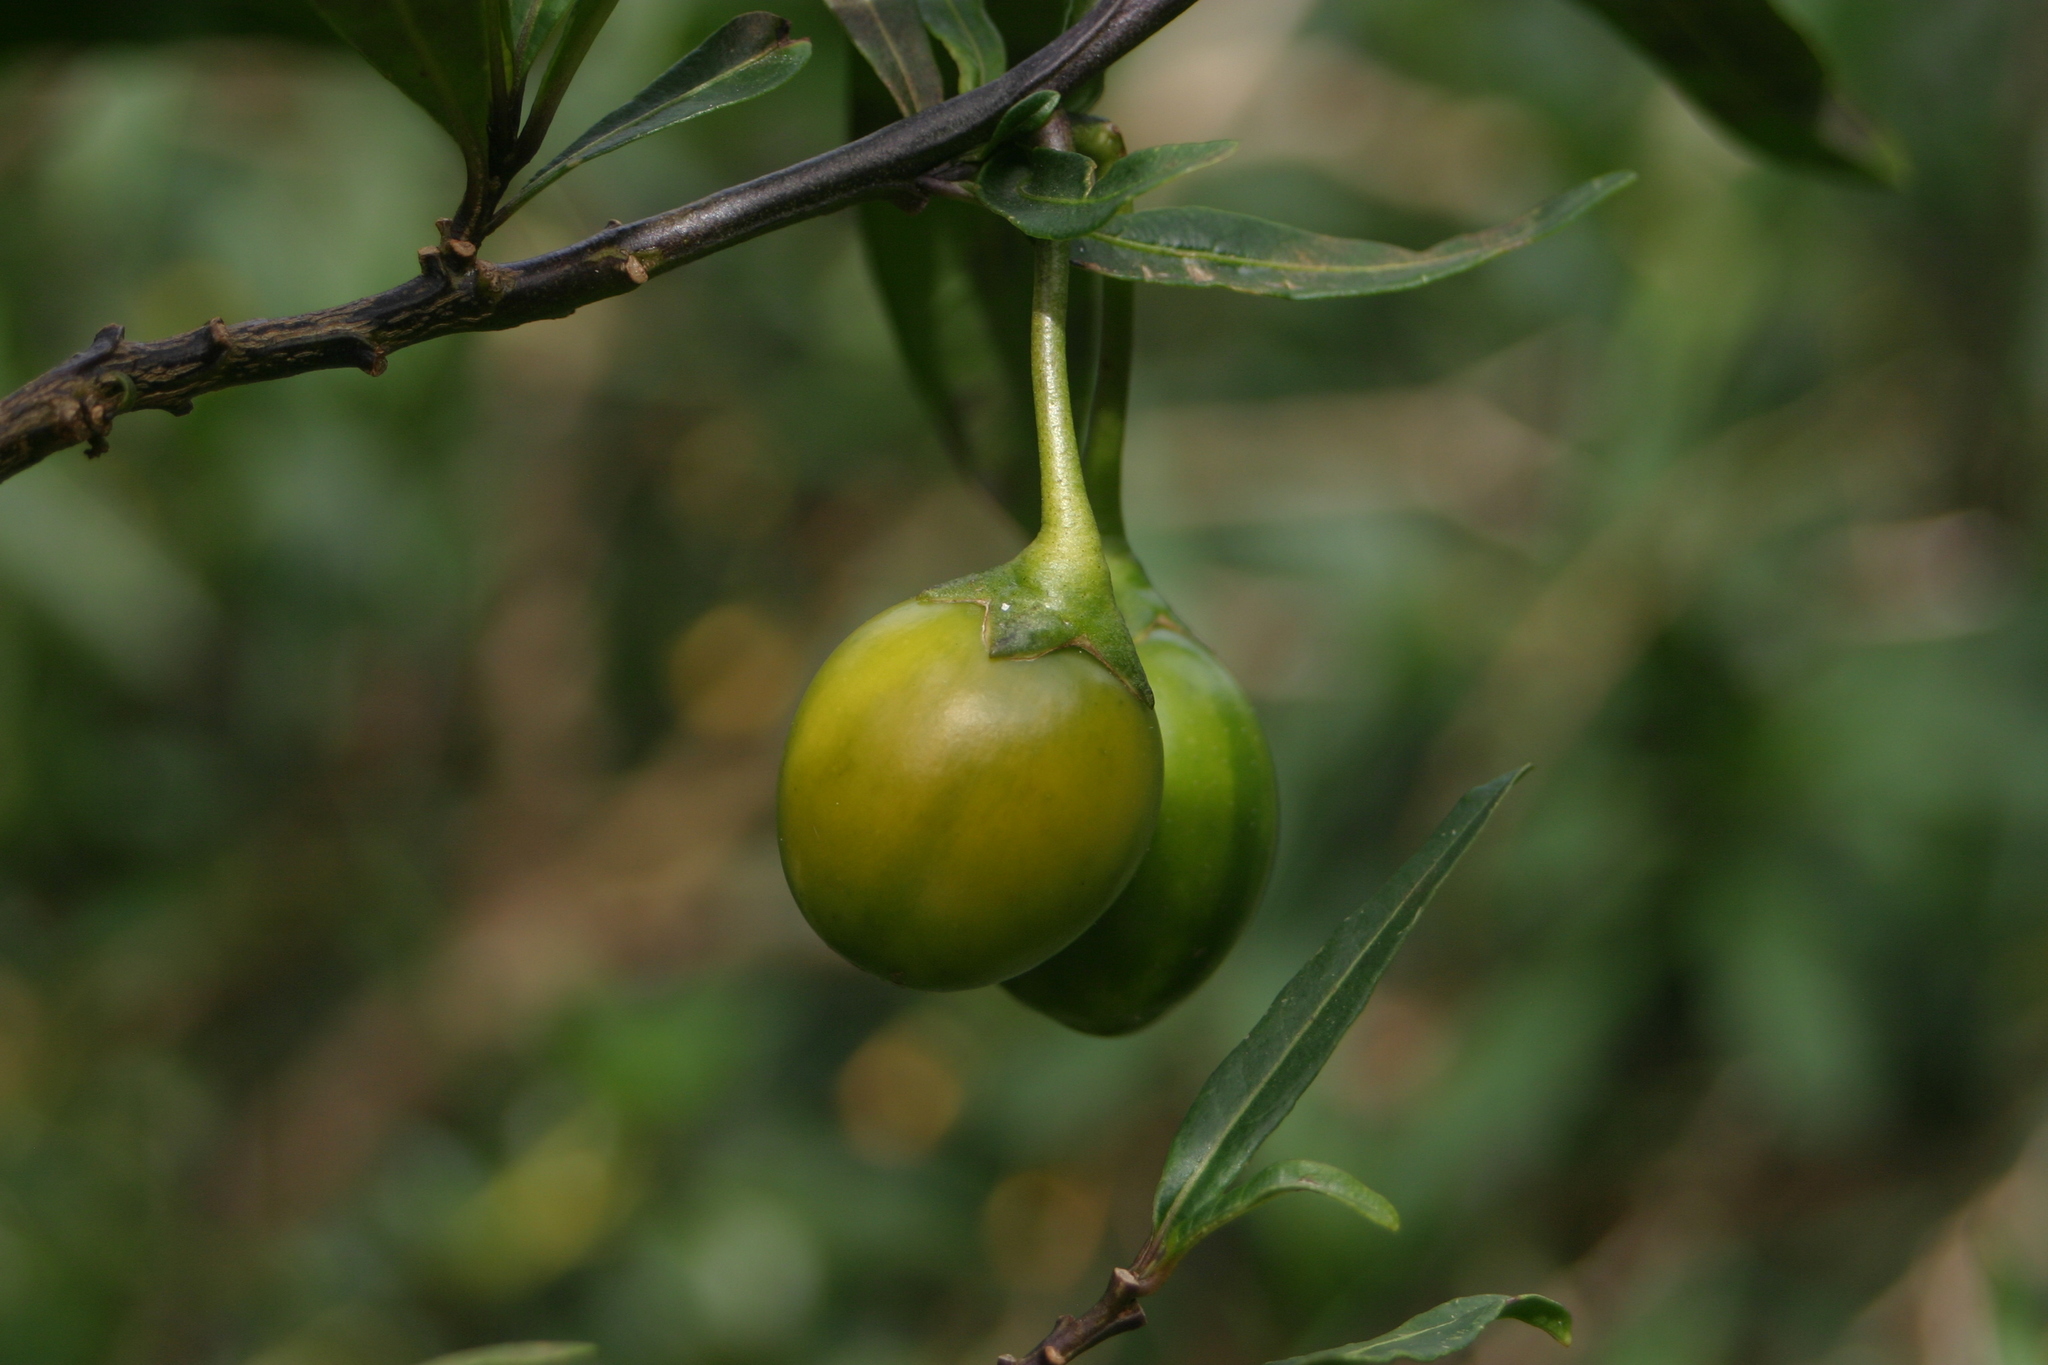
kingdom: Plantae
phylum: Tracheophyta
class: Magnoliopsida
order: Solanales
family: Solanaceae
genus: Solanum
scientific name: Solanum laciniatum
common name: Kangaroo-apple
